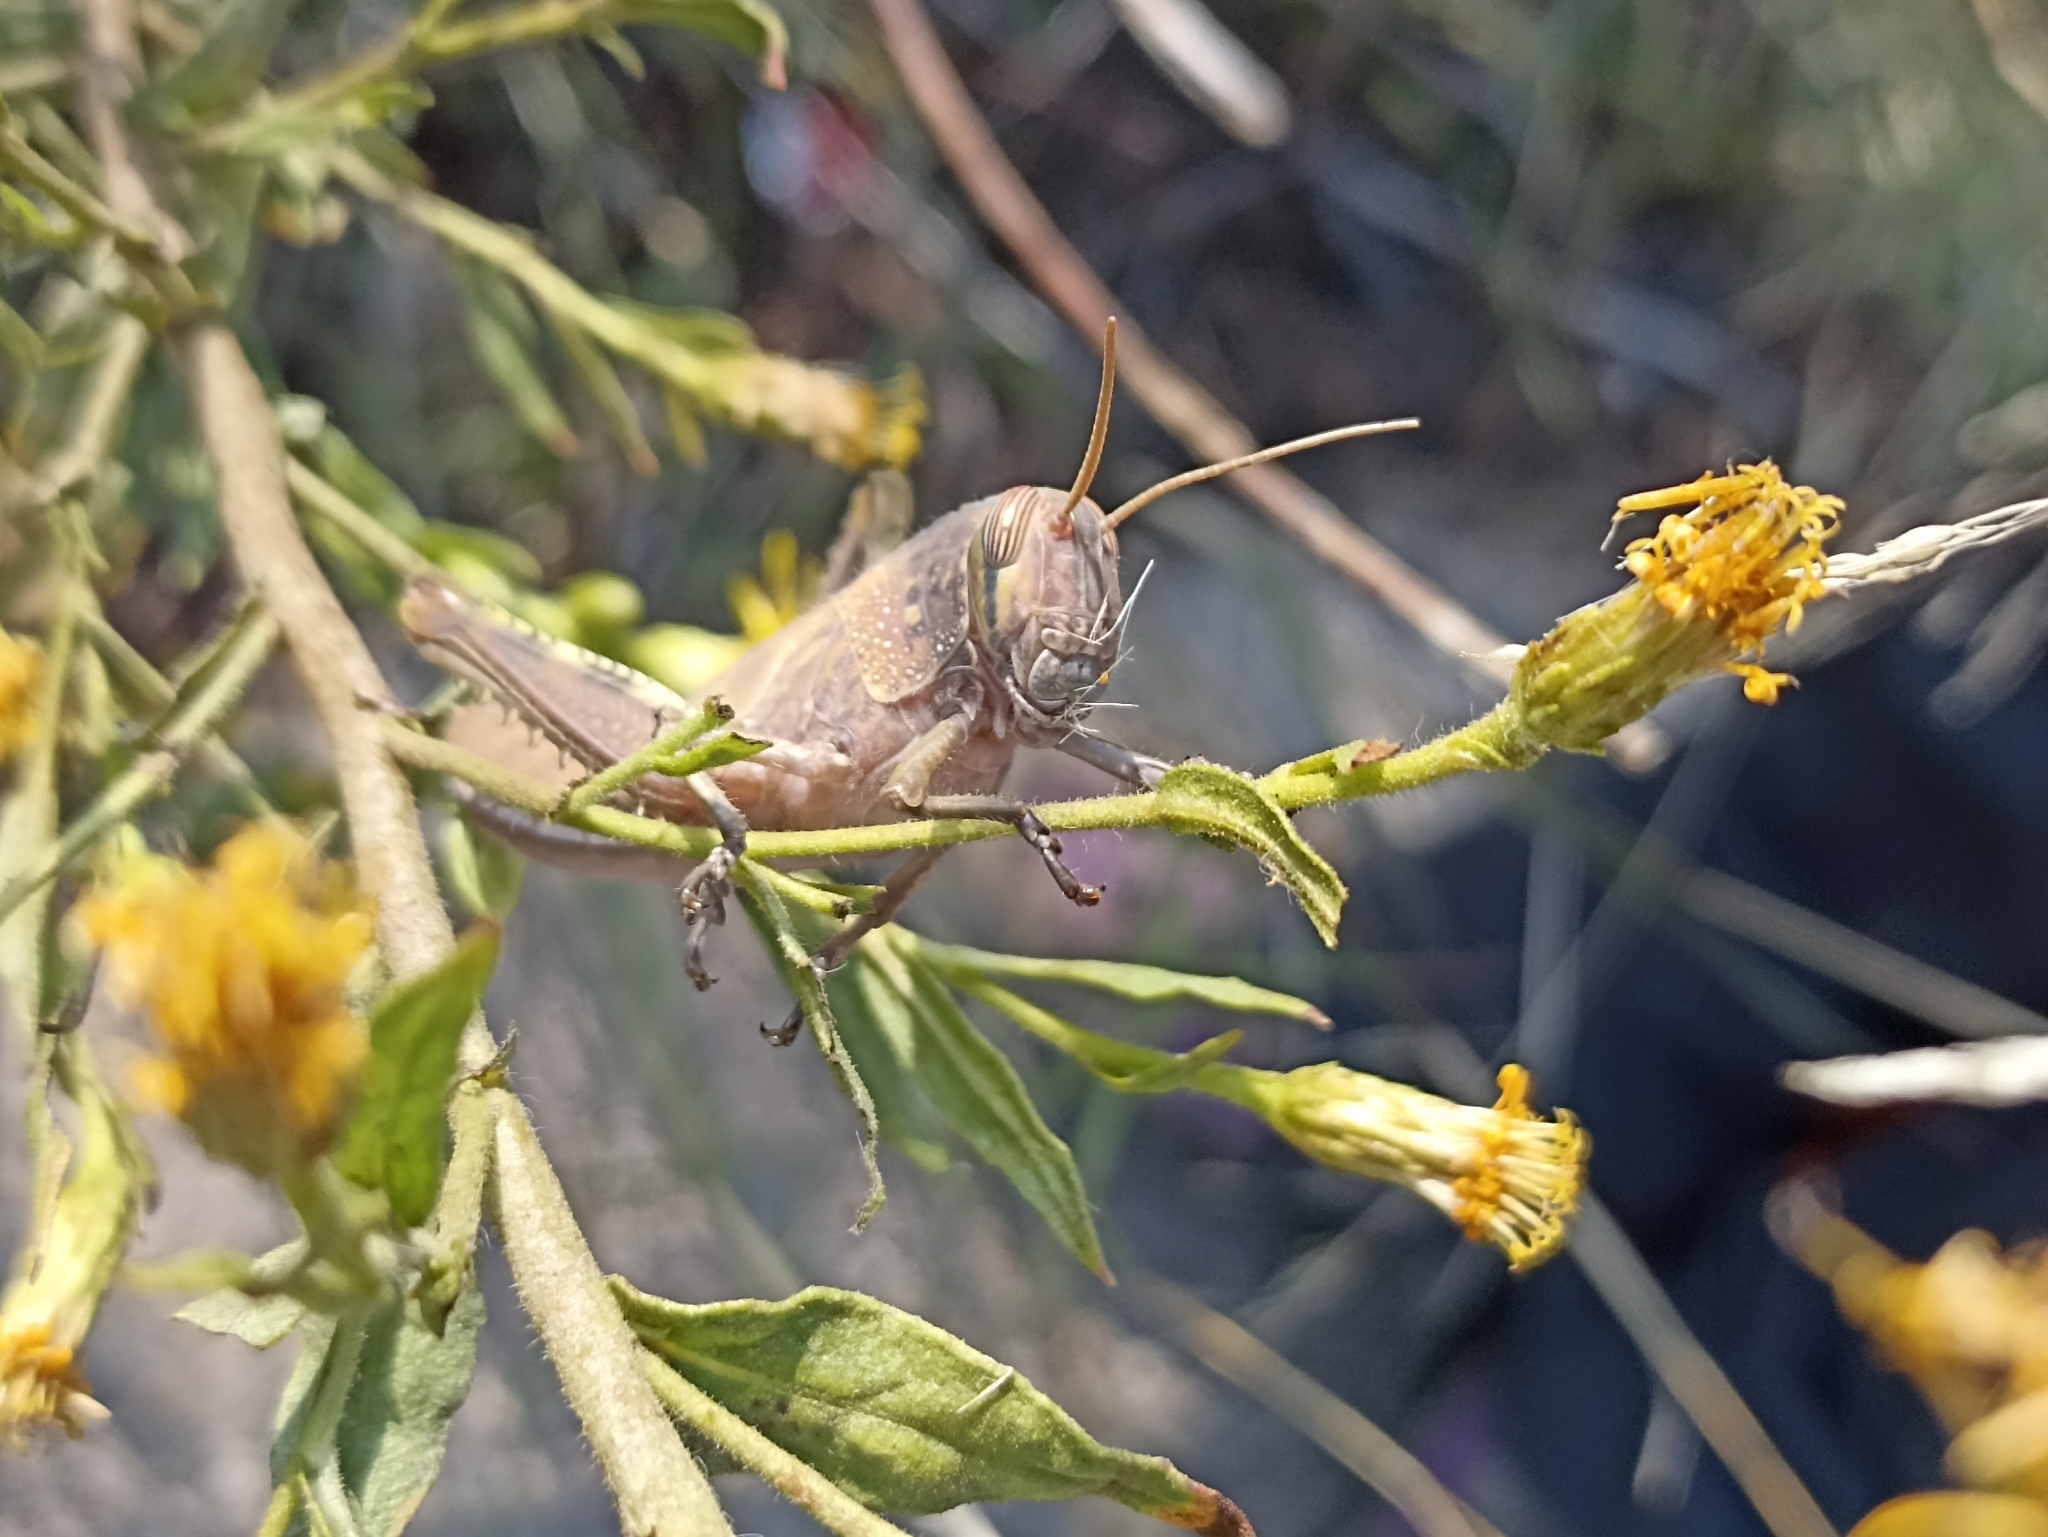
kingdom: Animalia
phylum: Arthropoda
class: Insecta
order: Orthoptera
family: Acrididae
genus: Anacridium
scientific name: Anacridium aegyptium
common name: Egyptian grasshopper
